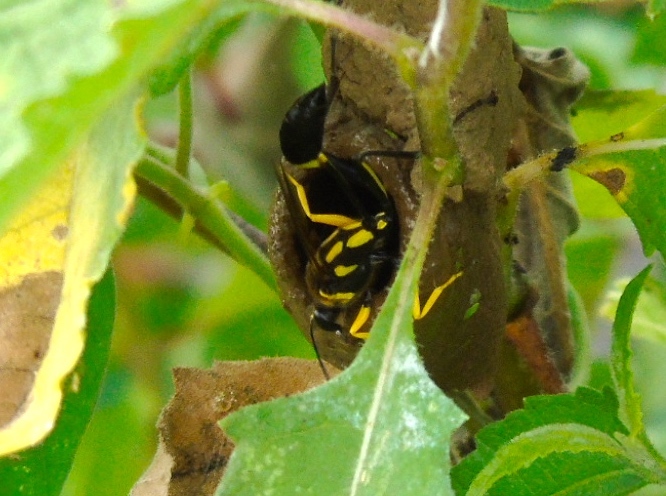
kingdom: Animalia
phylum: Arthropoda
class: Insecta
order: Hymenoptera
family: Sphecidae
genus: Sceliphron
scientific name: Sceliphron fistularium
